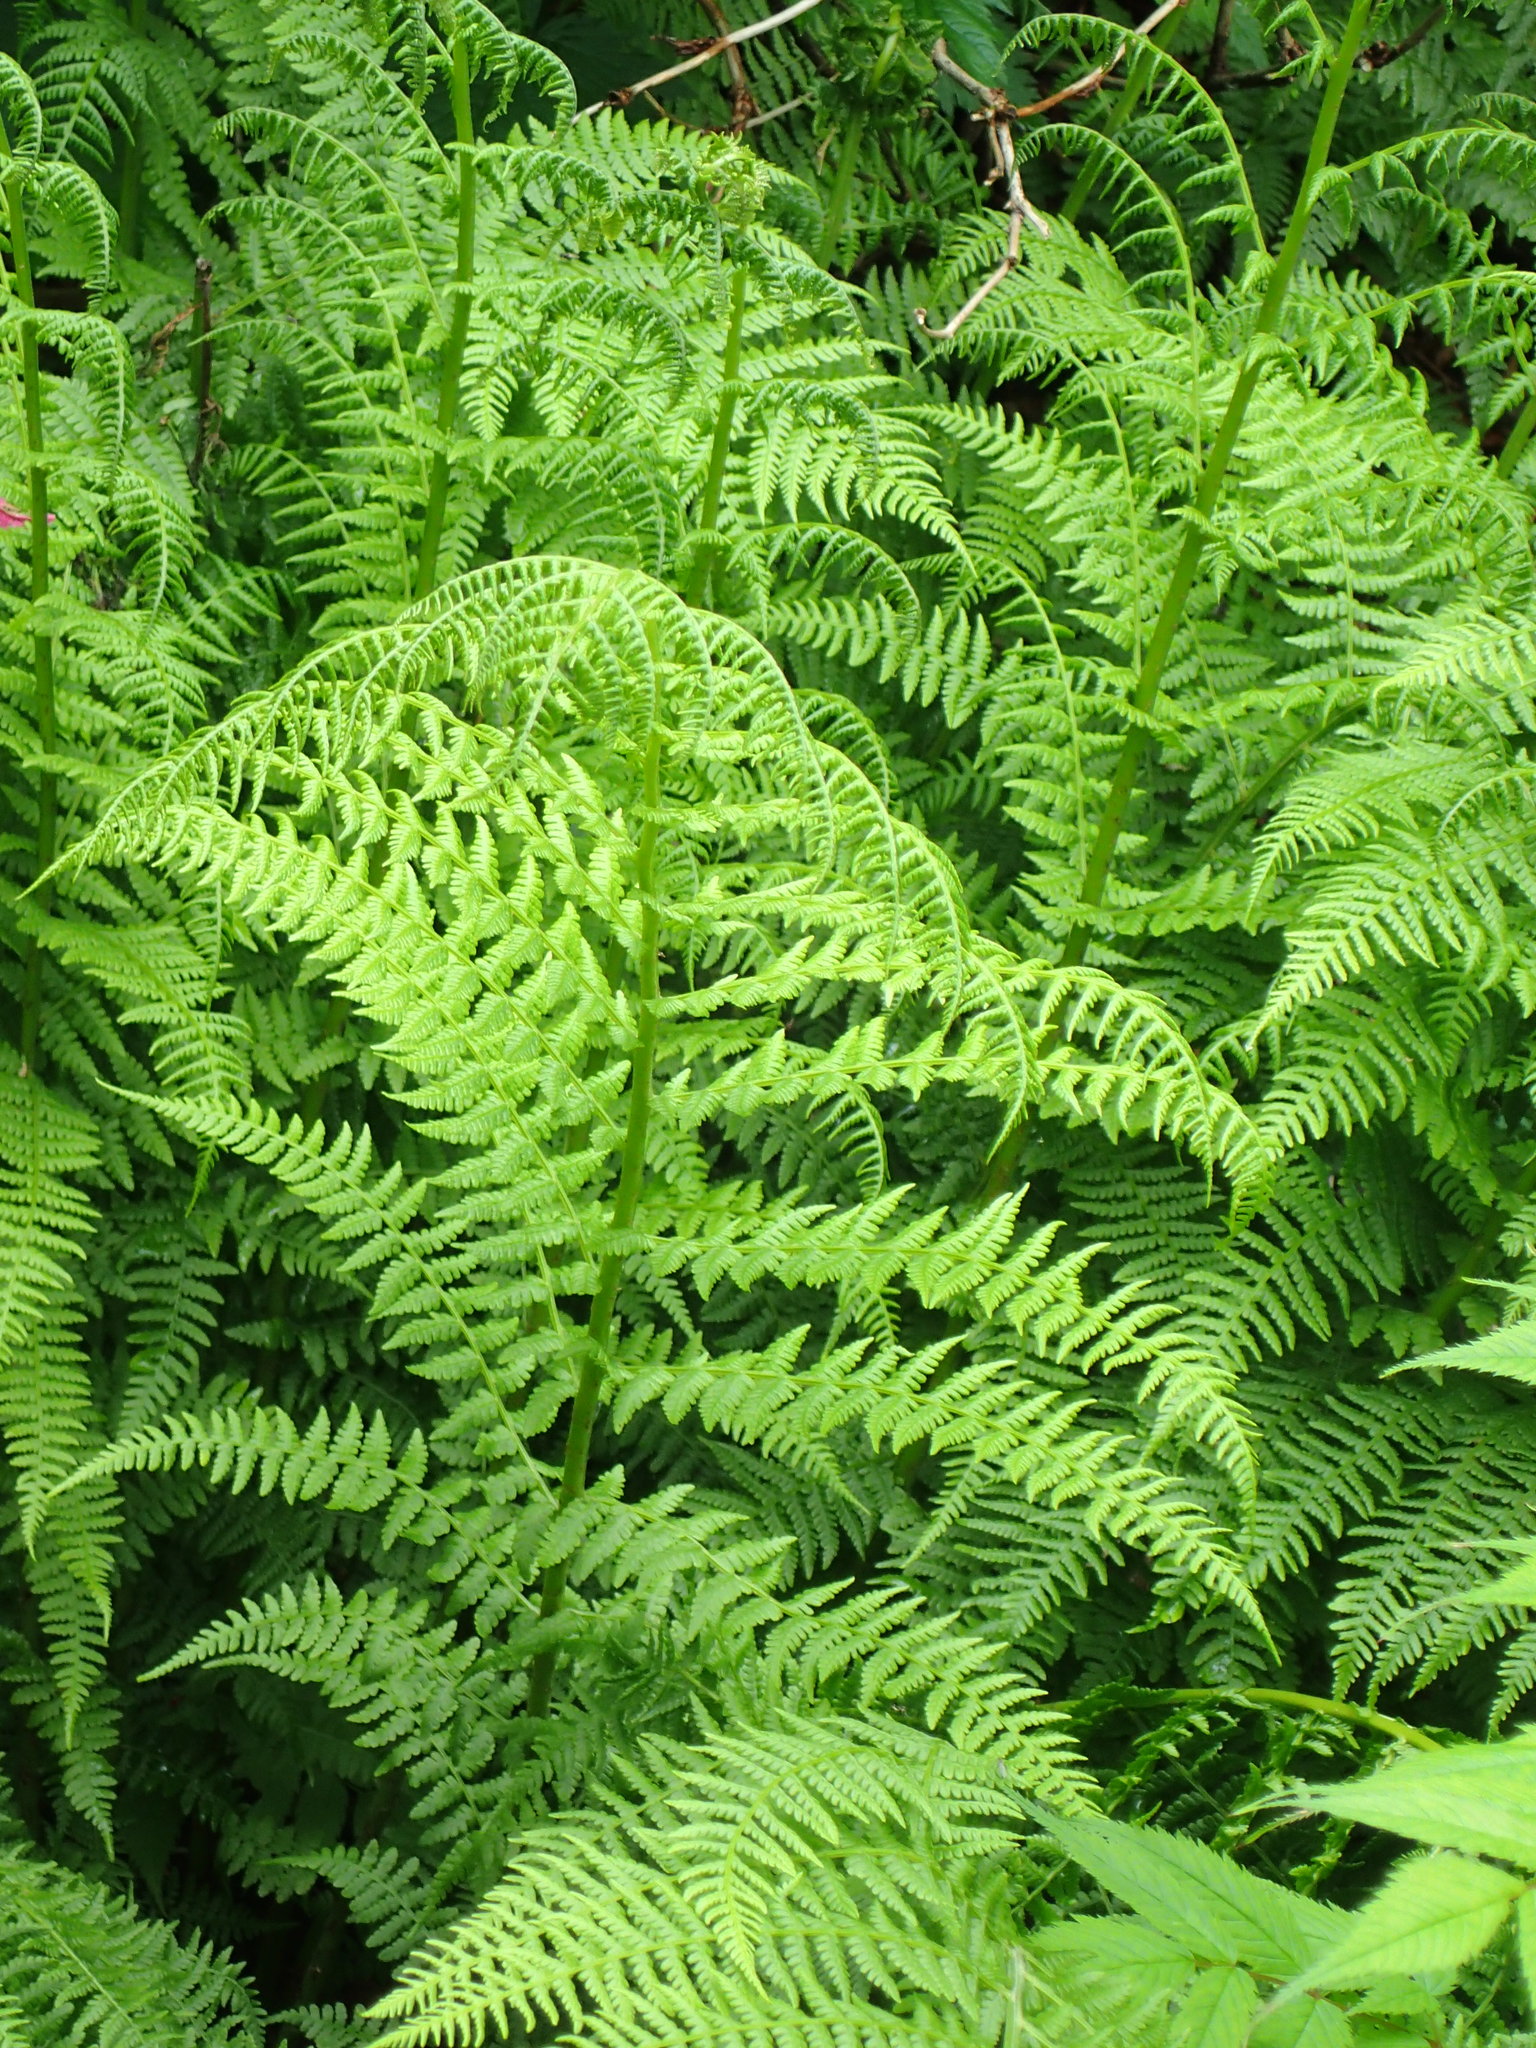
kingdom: Plantae
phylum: Tracheophyta
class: Polypodiopsida
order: Polypodiales
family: Athyriaceae
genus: Athyrium
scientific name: Athyrium filix-femina
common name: Lady fern
